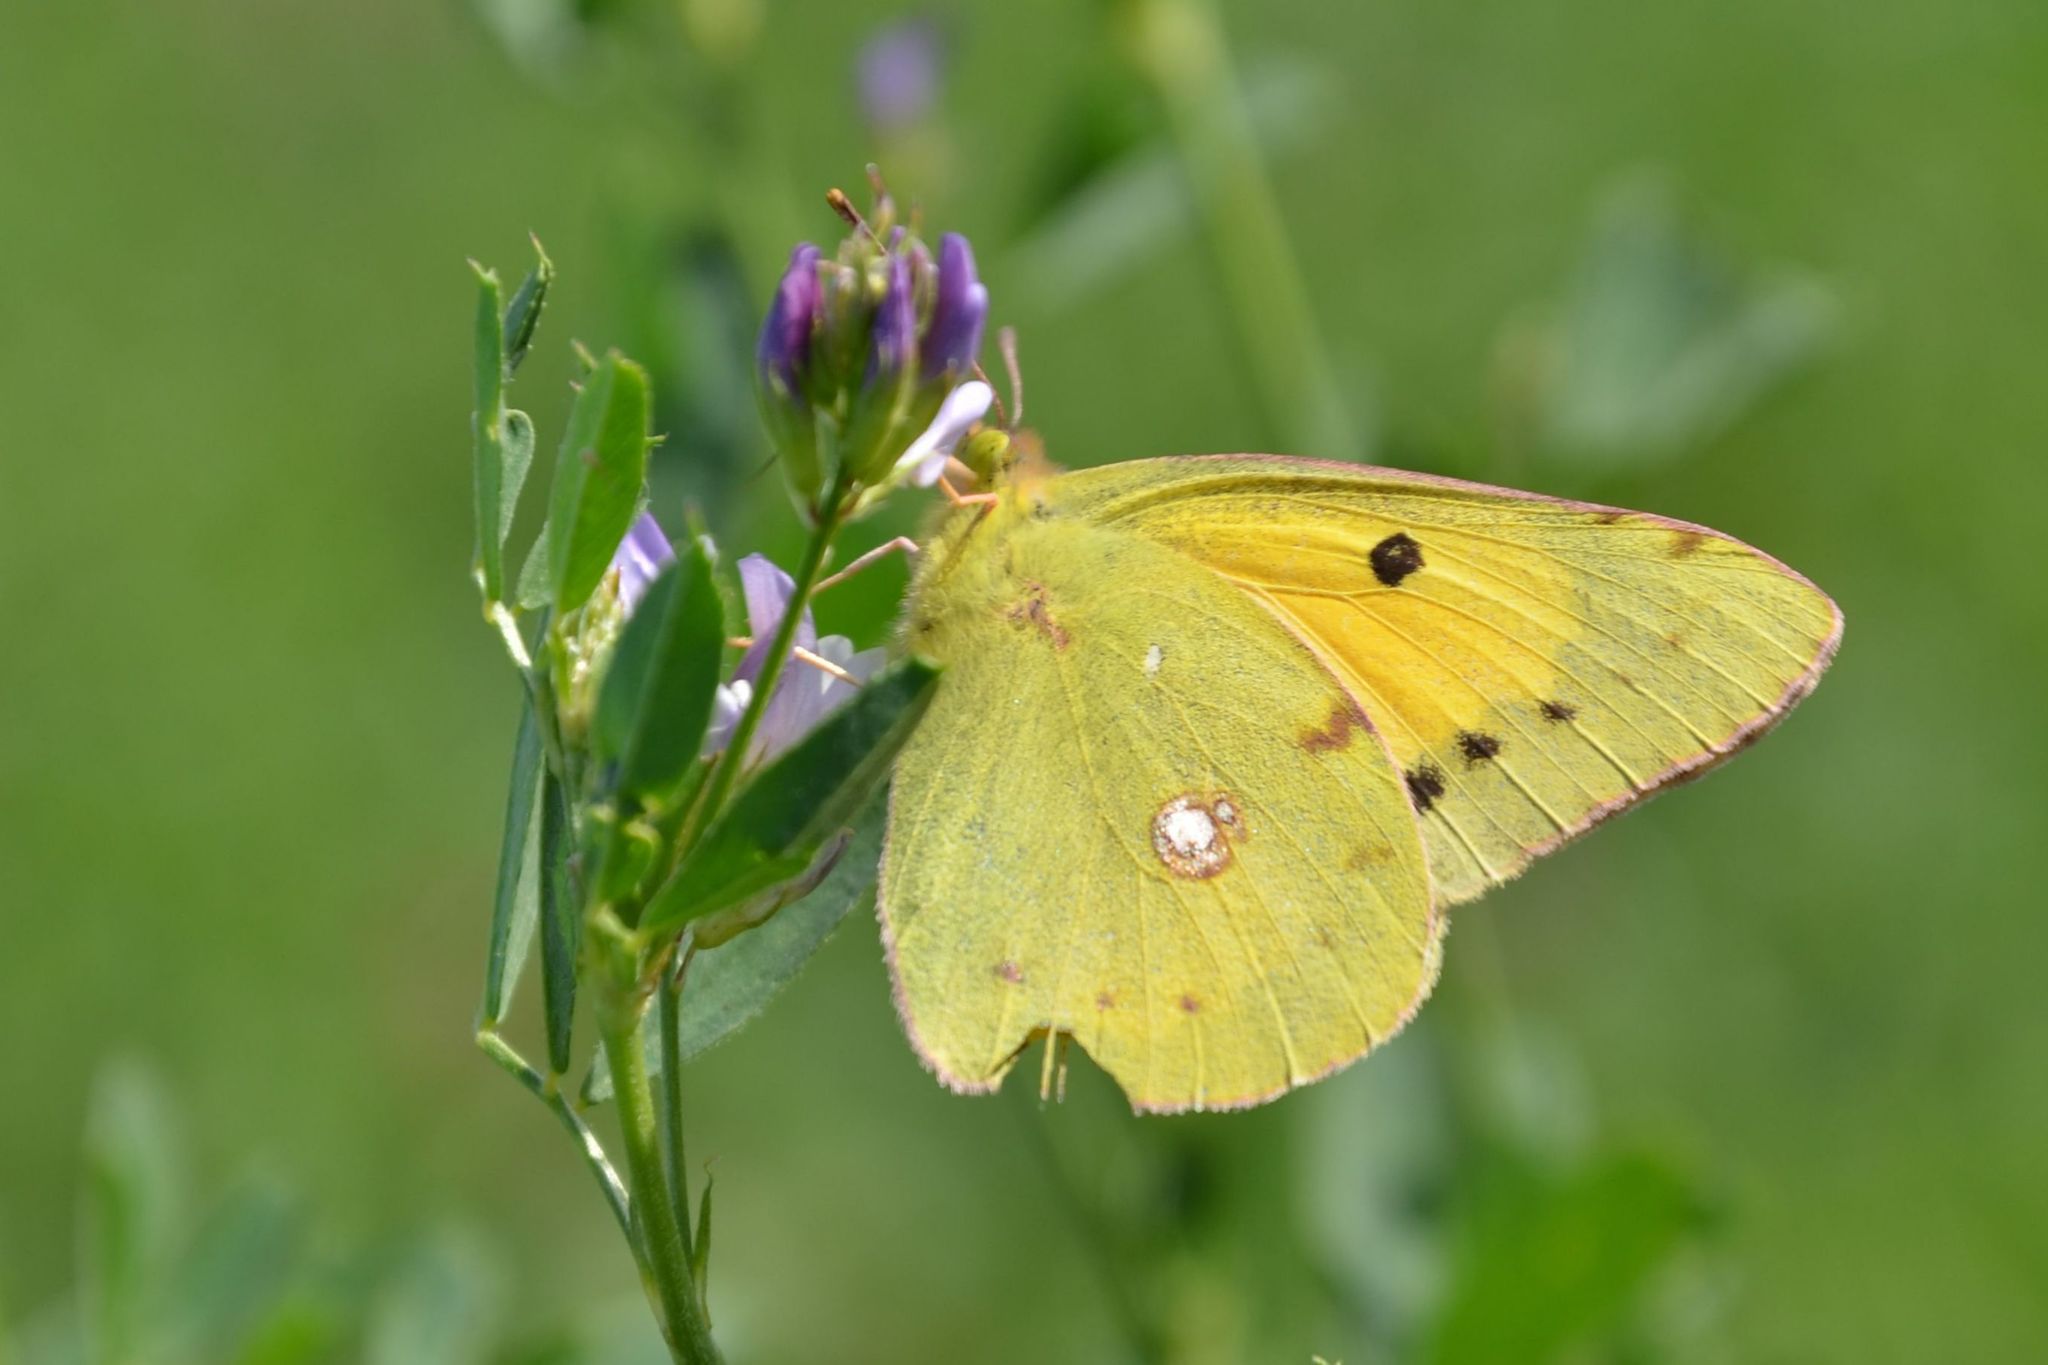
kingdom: Animalia
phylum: Arthropoda
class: Insecta
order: Lepidoptera
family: Pieridae
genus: Colias
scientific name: Colias croceus
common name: Clouded yellow
